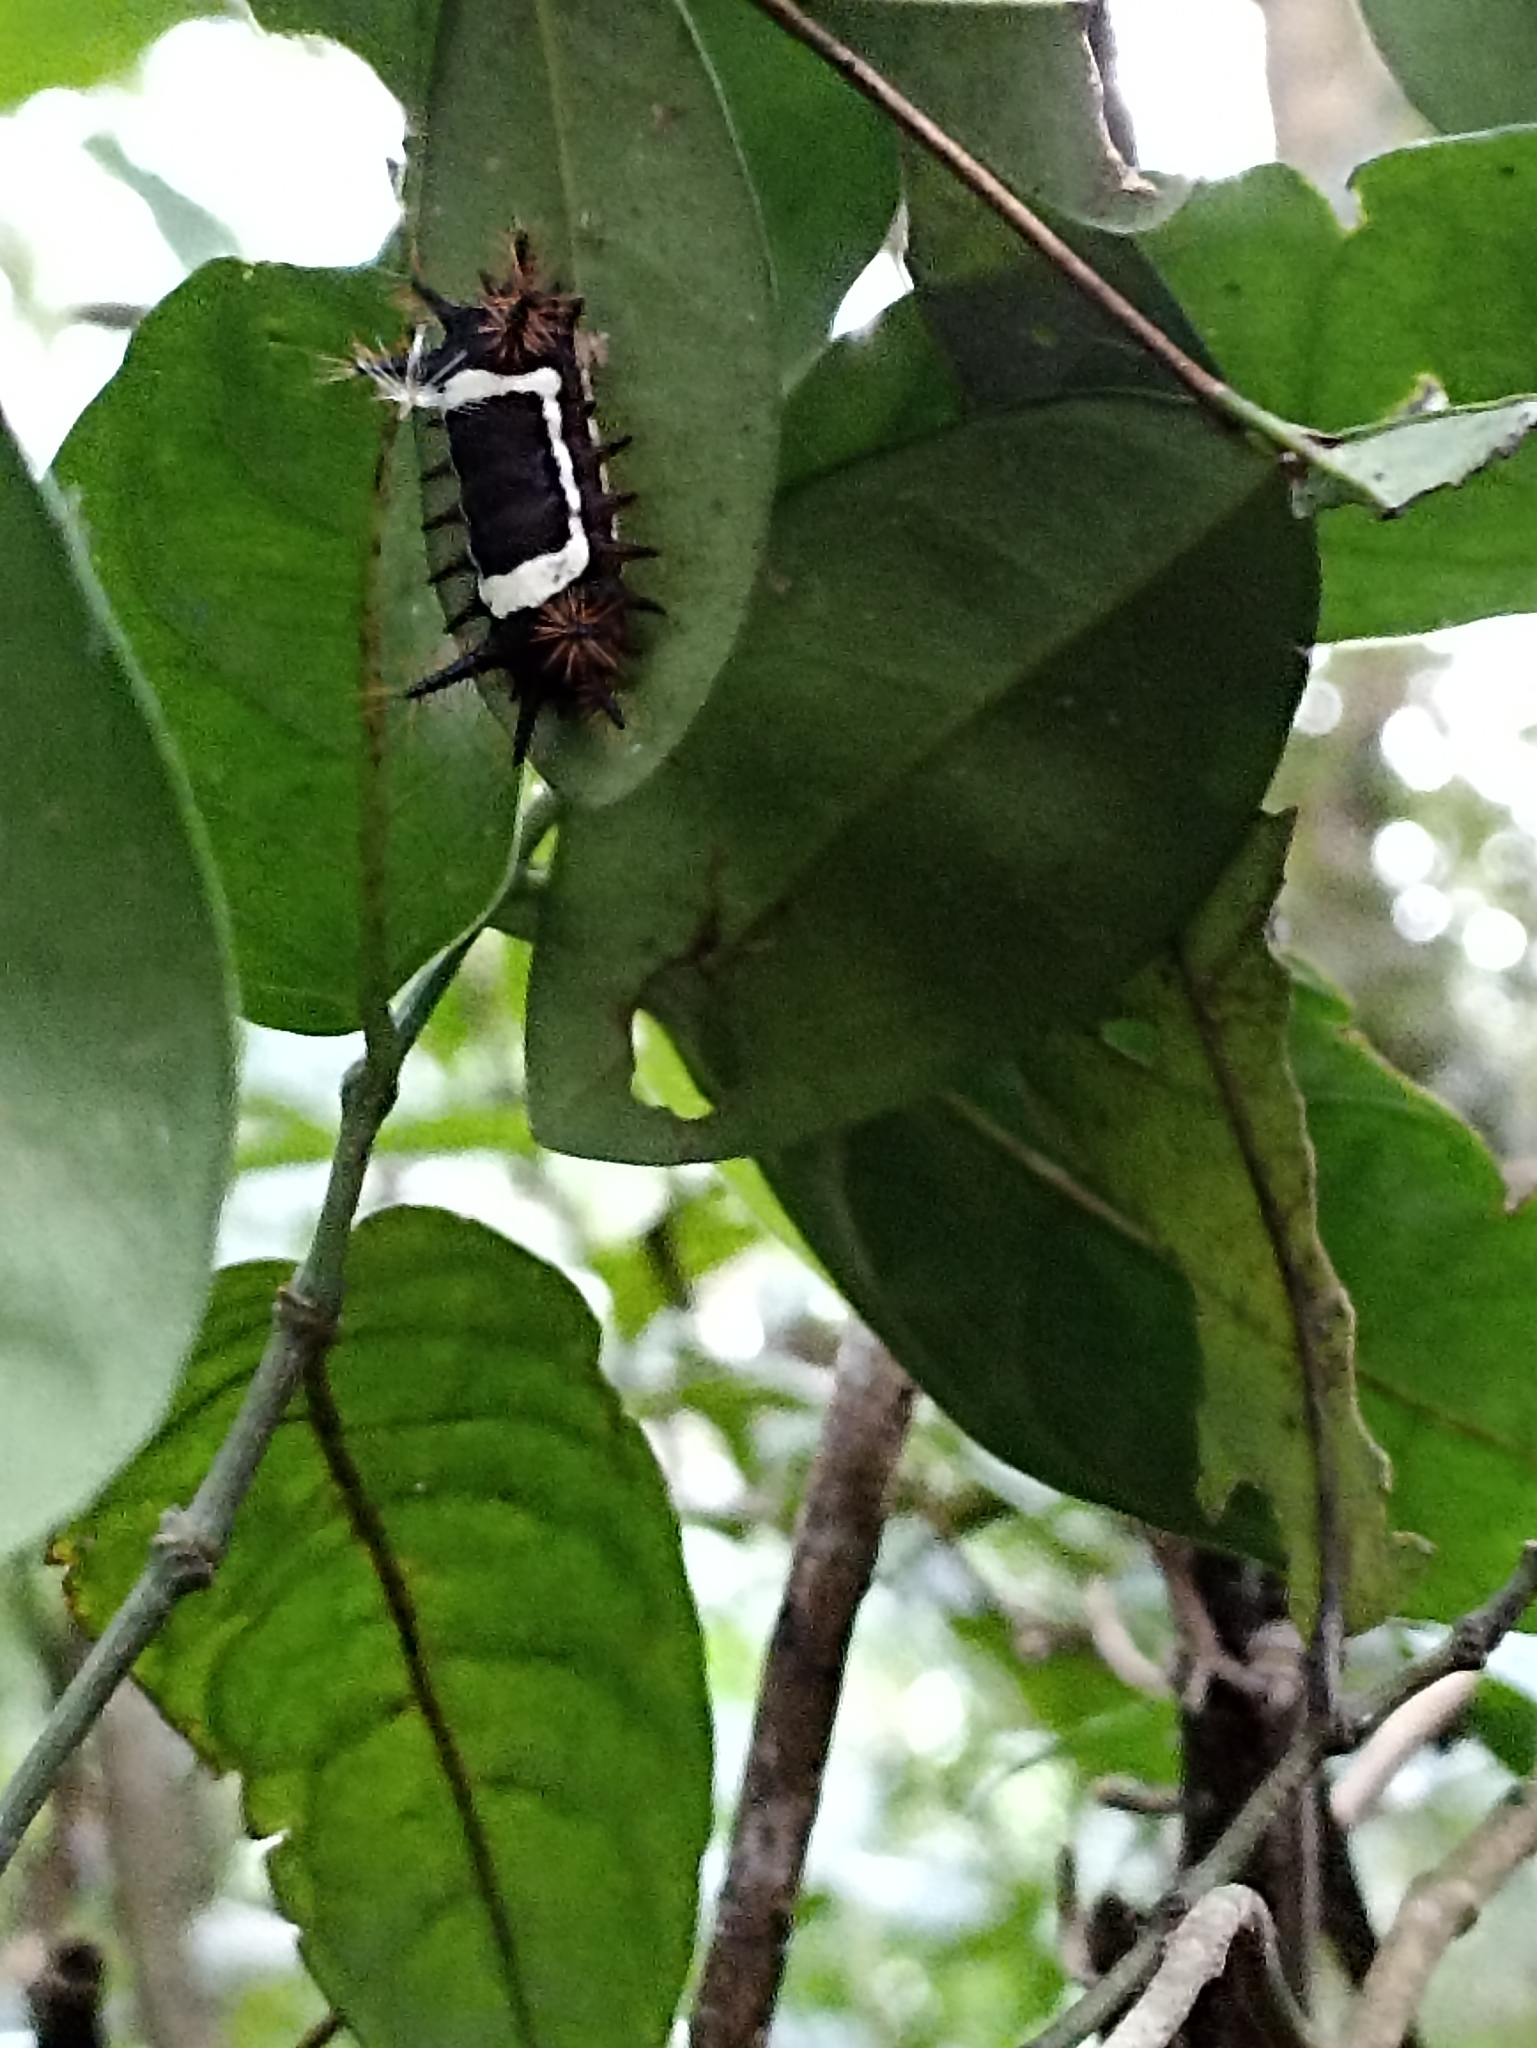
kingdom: Animalia
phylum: Arthropoda
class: Insecta
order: Lepidoptera
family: Limacodidae
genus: Sibine
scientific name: Sibine nesea
